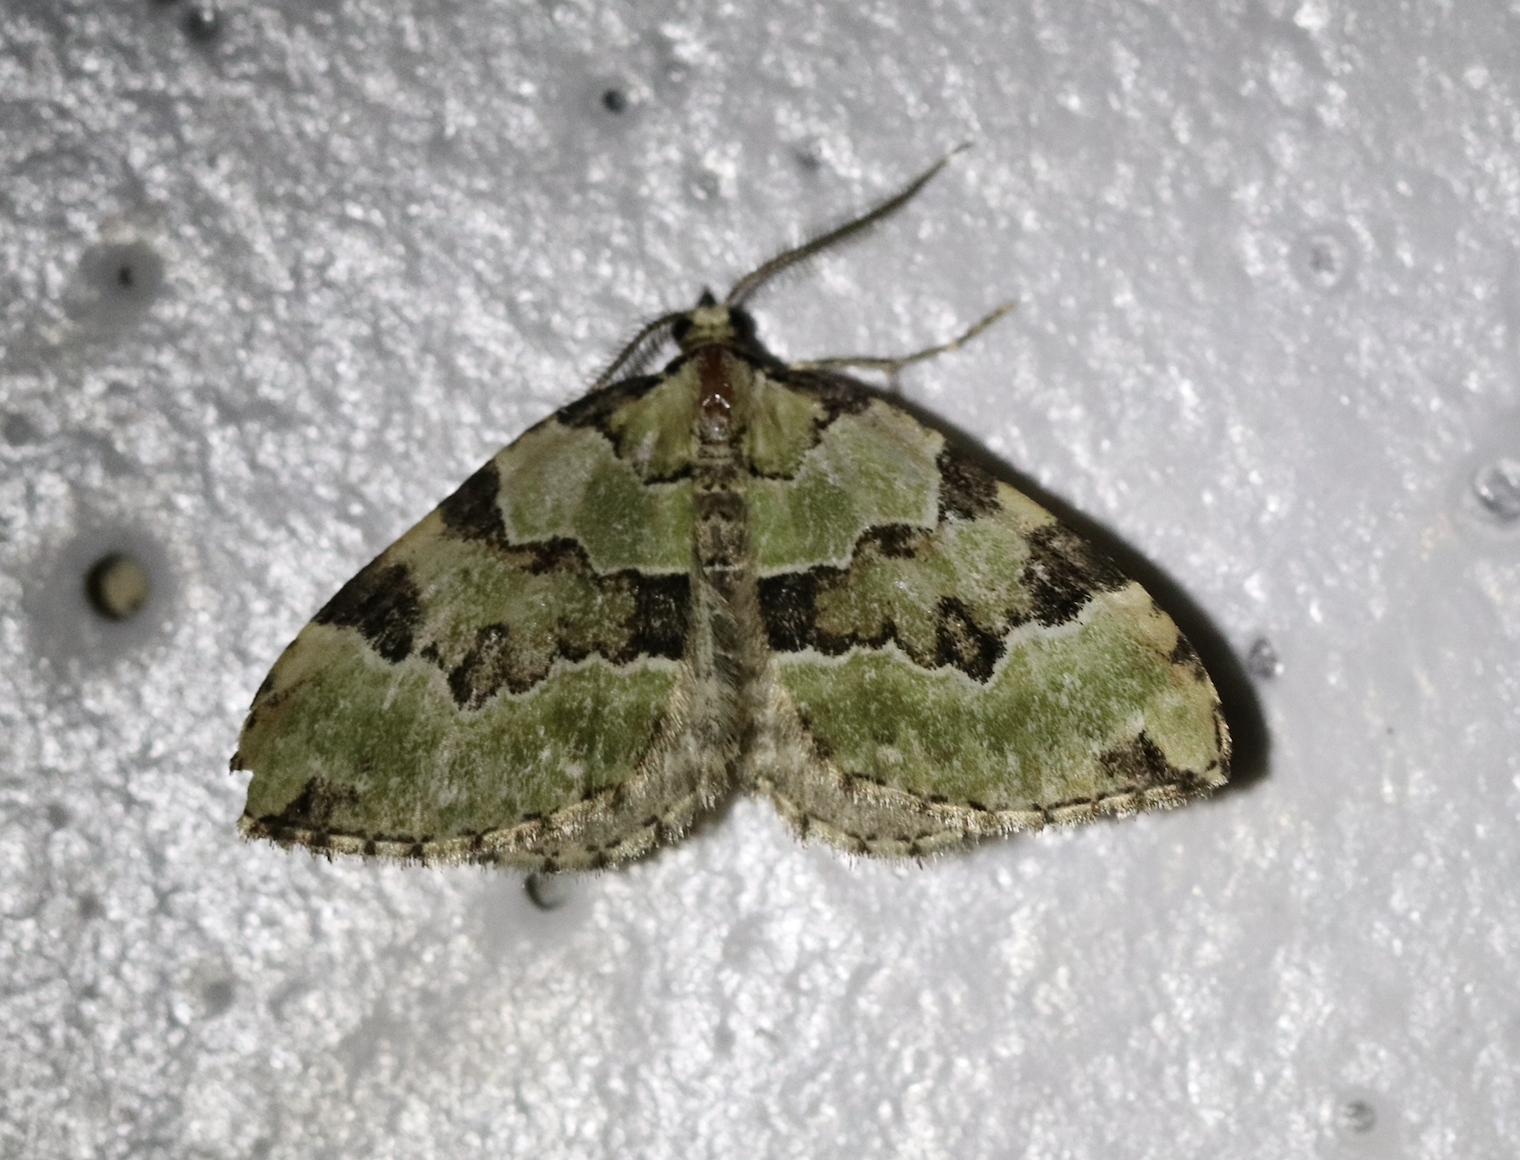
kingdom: Animalia
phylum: Arthropoda
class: Insecta
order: Lepidoptera
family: Geometridae
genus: Colostygia
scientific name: Colostygia pectinataria
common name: Green carpet
